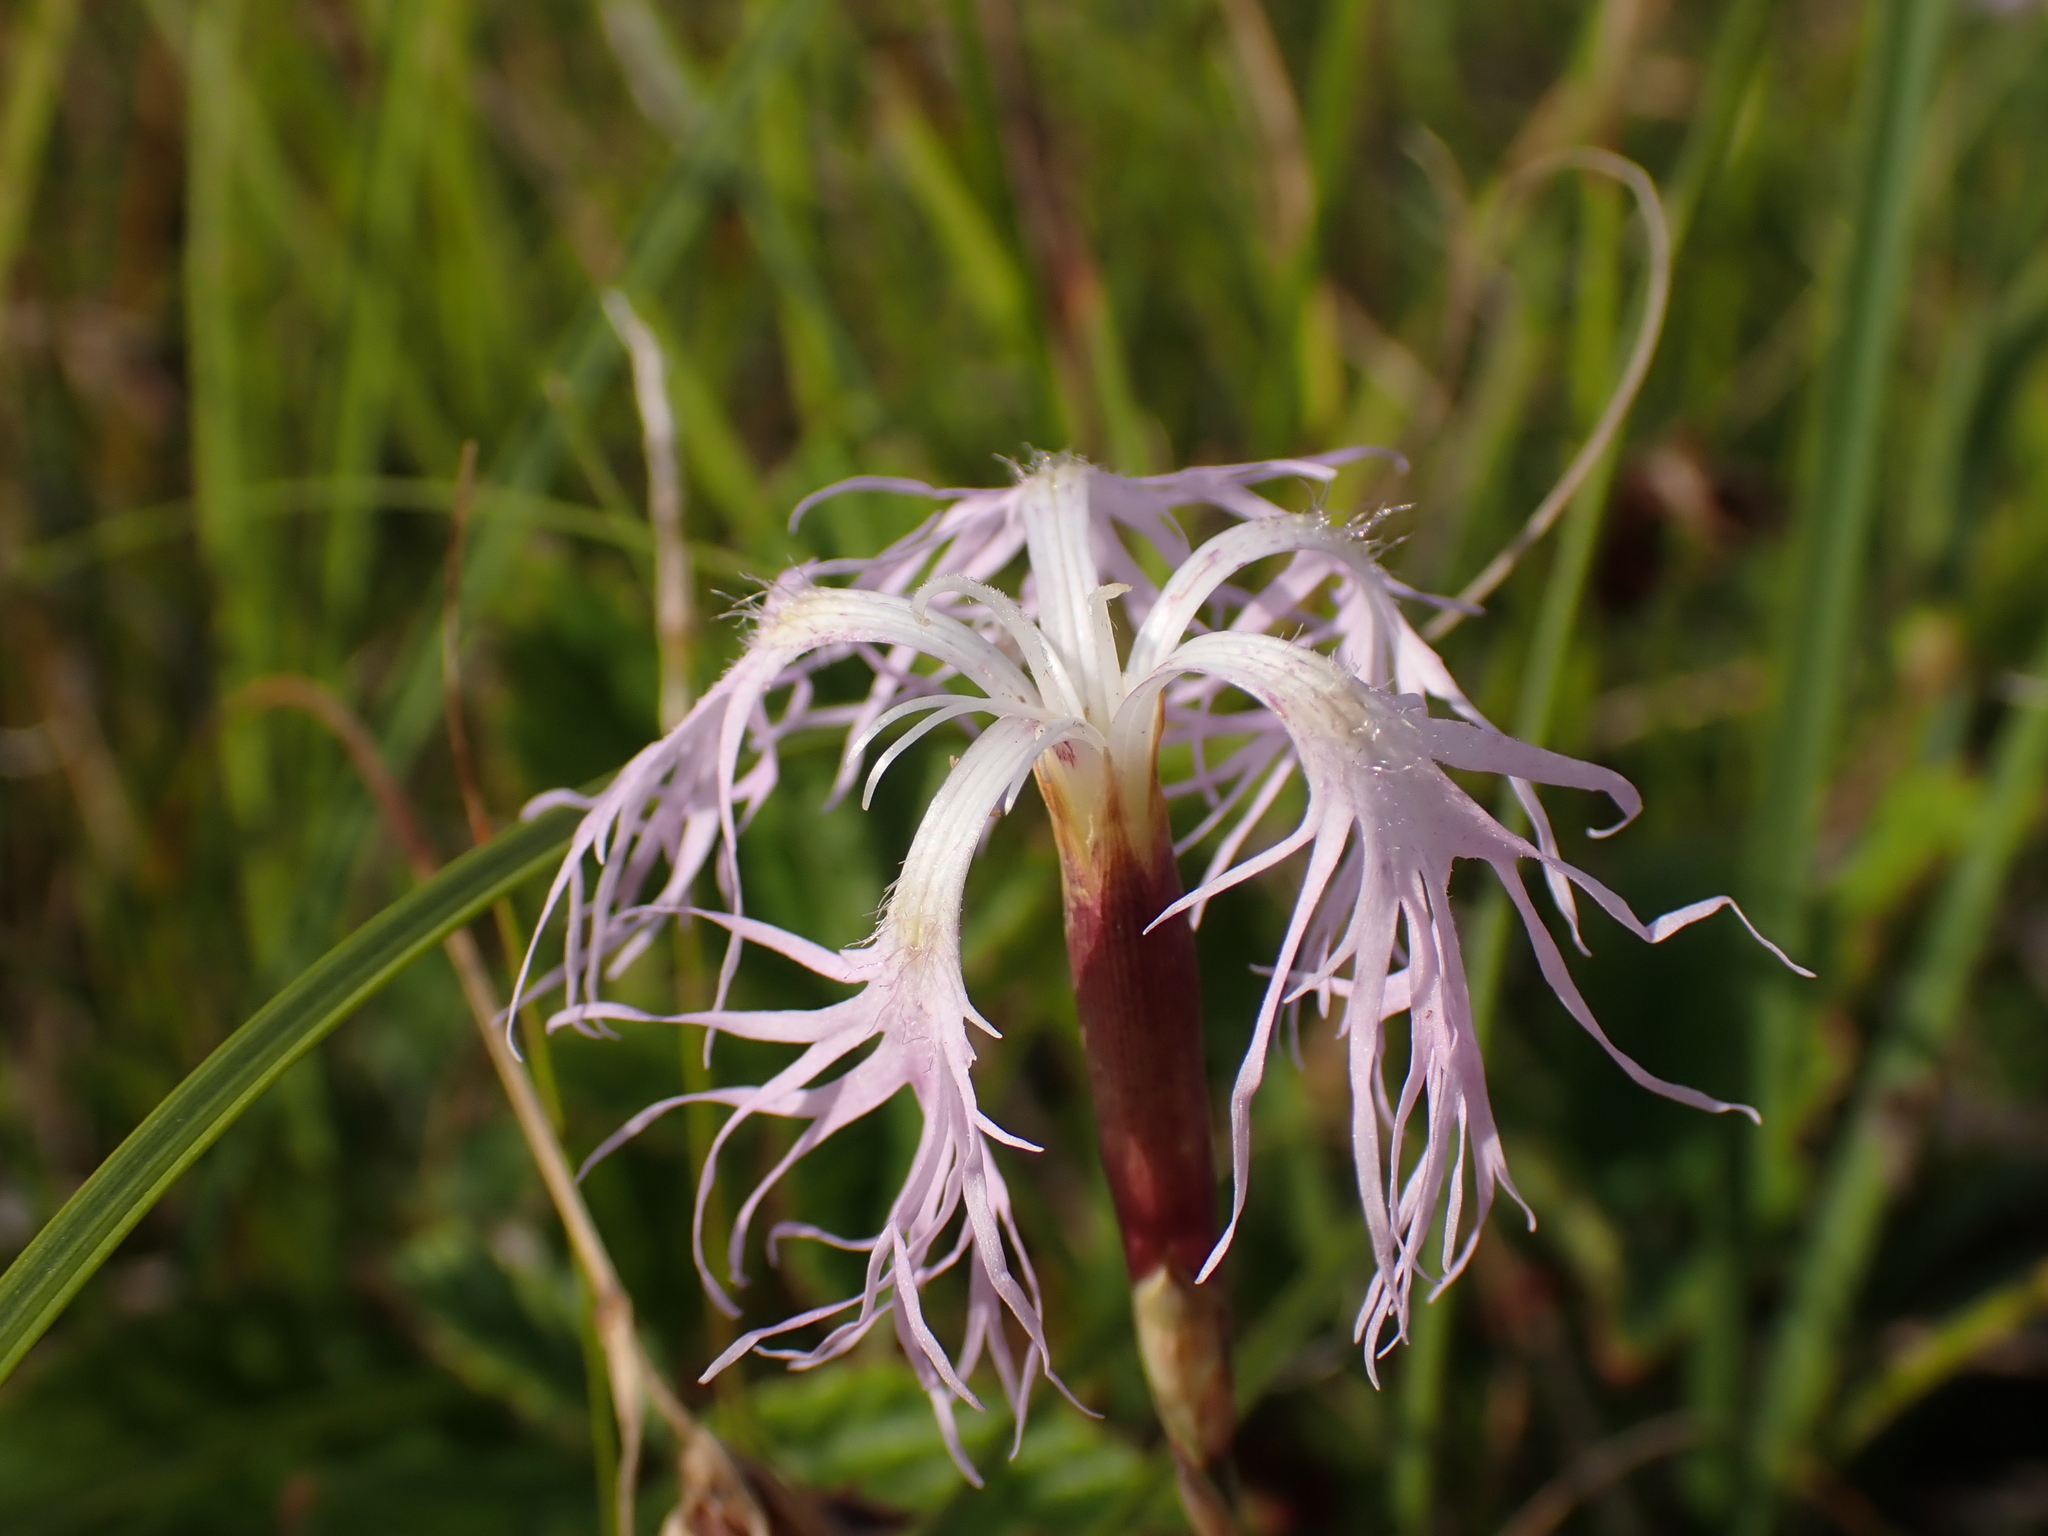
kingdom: Plantae
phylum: Tracheophyta
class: Magnoliopsida
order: Caryophyllales
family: Caryophyllaceae
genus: Dianthus
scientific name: Dianthus superbus
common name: Fringed pink
